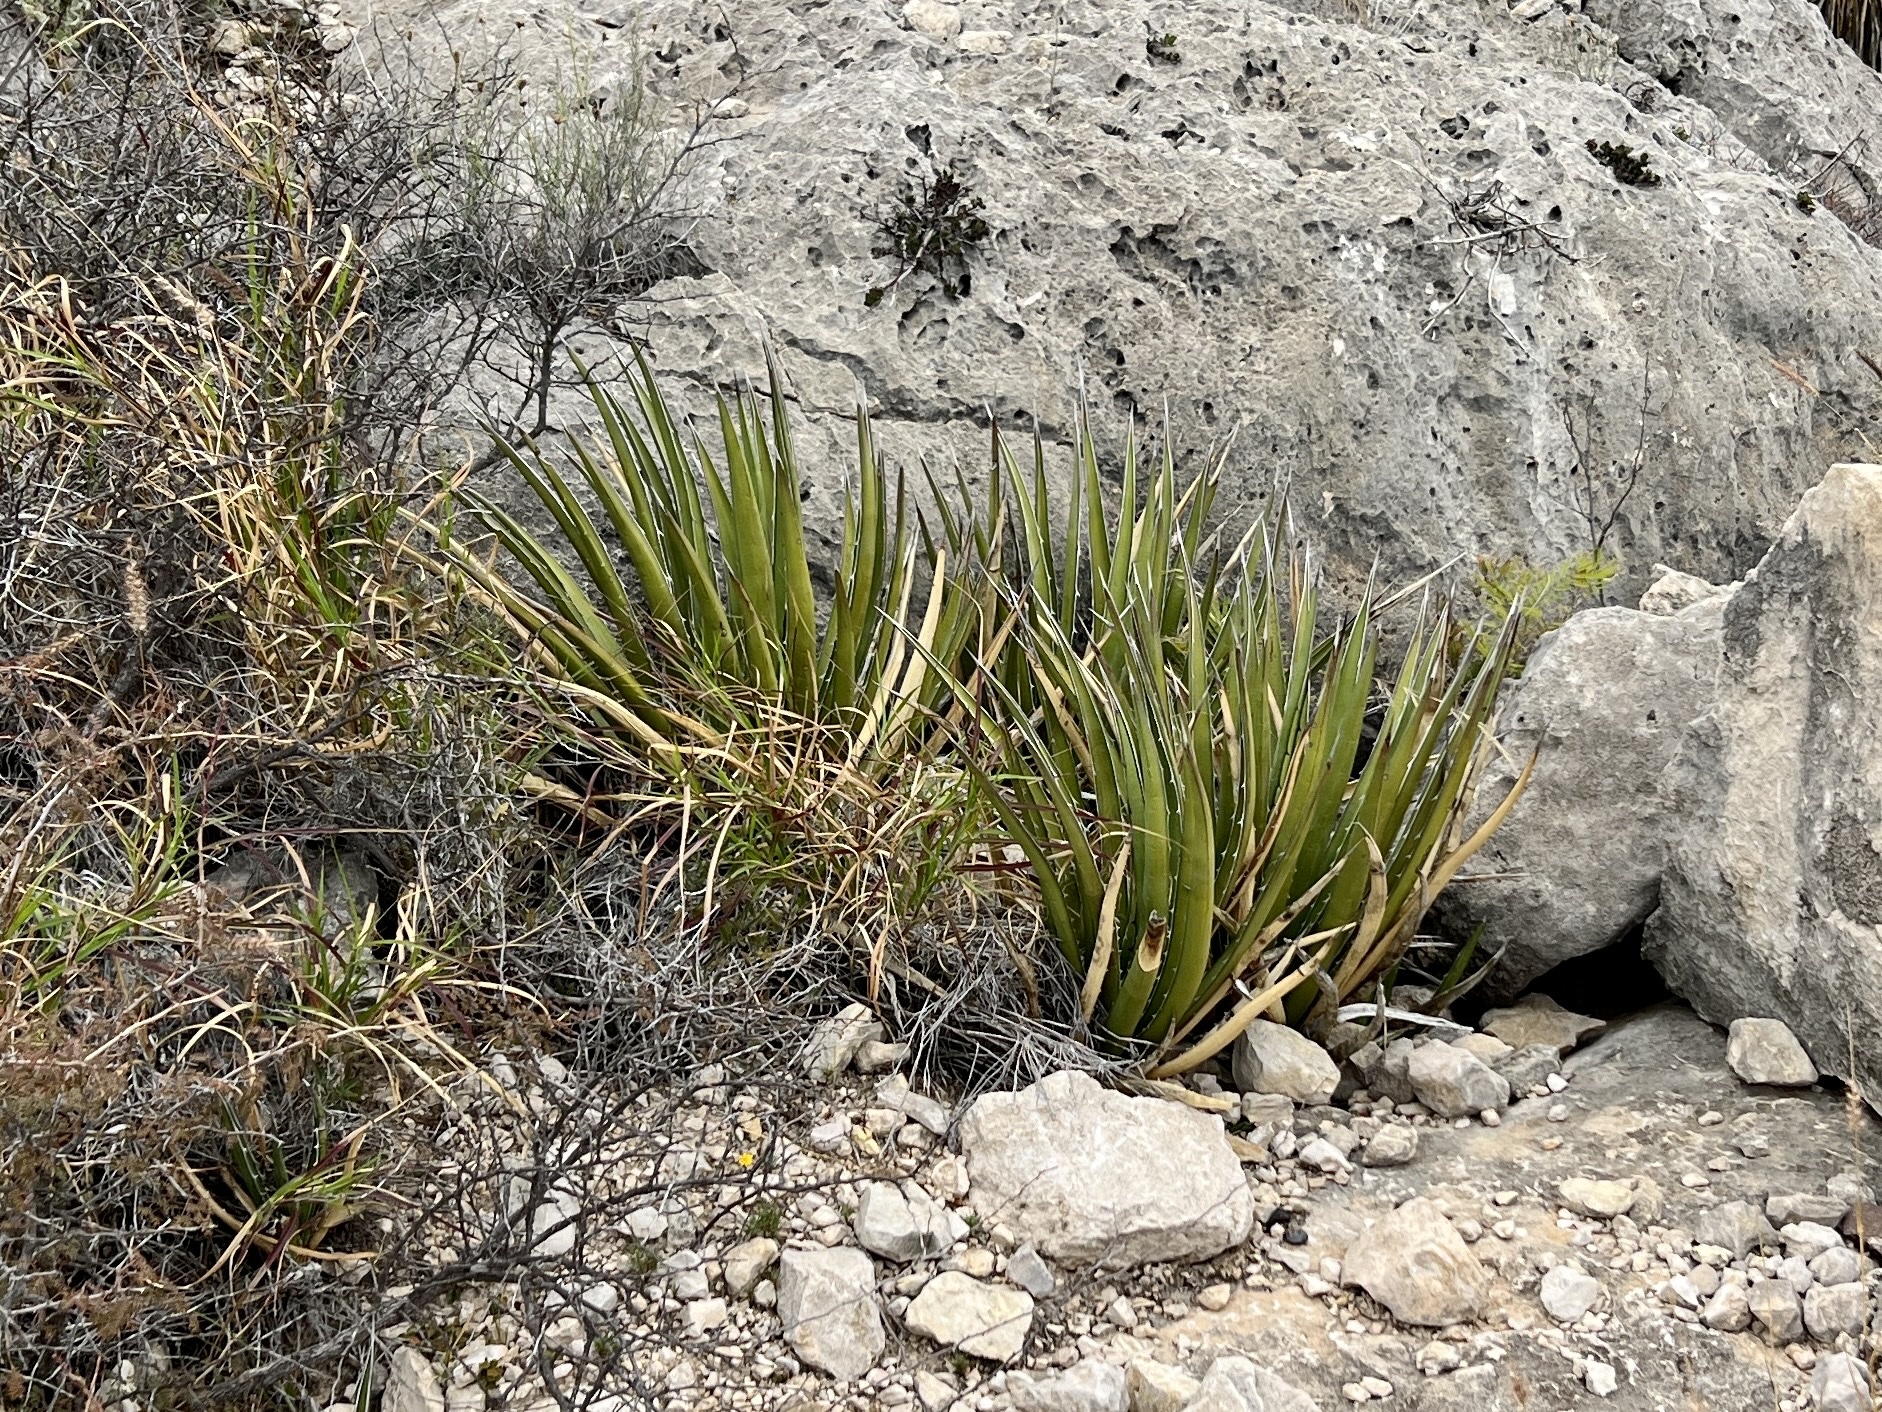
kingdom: Plantae
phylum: Tracheophyta
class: Liliopsida
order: Asparagales
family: Asparagaceae
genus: Agave
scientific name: Agave lechuguilla
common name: Lecheguilla agave
